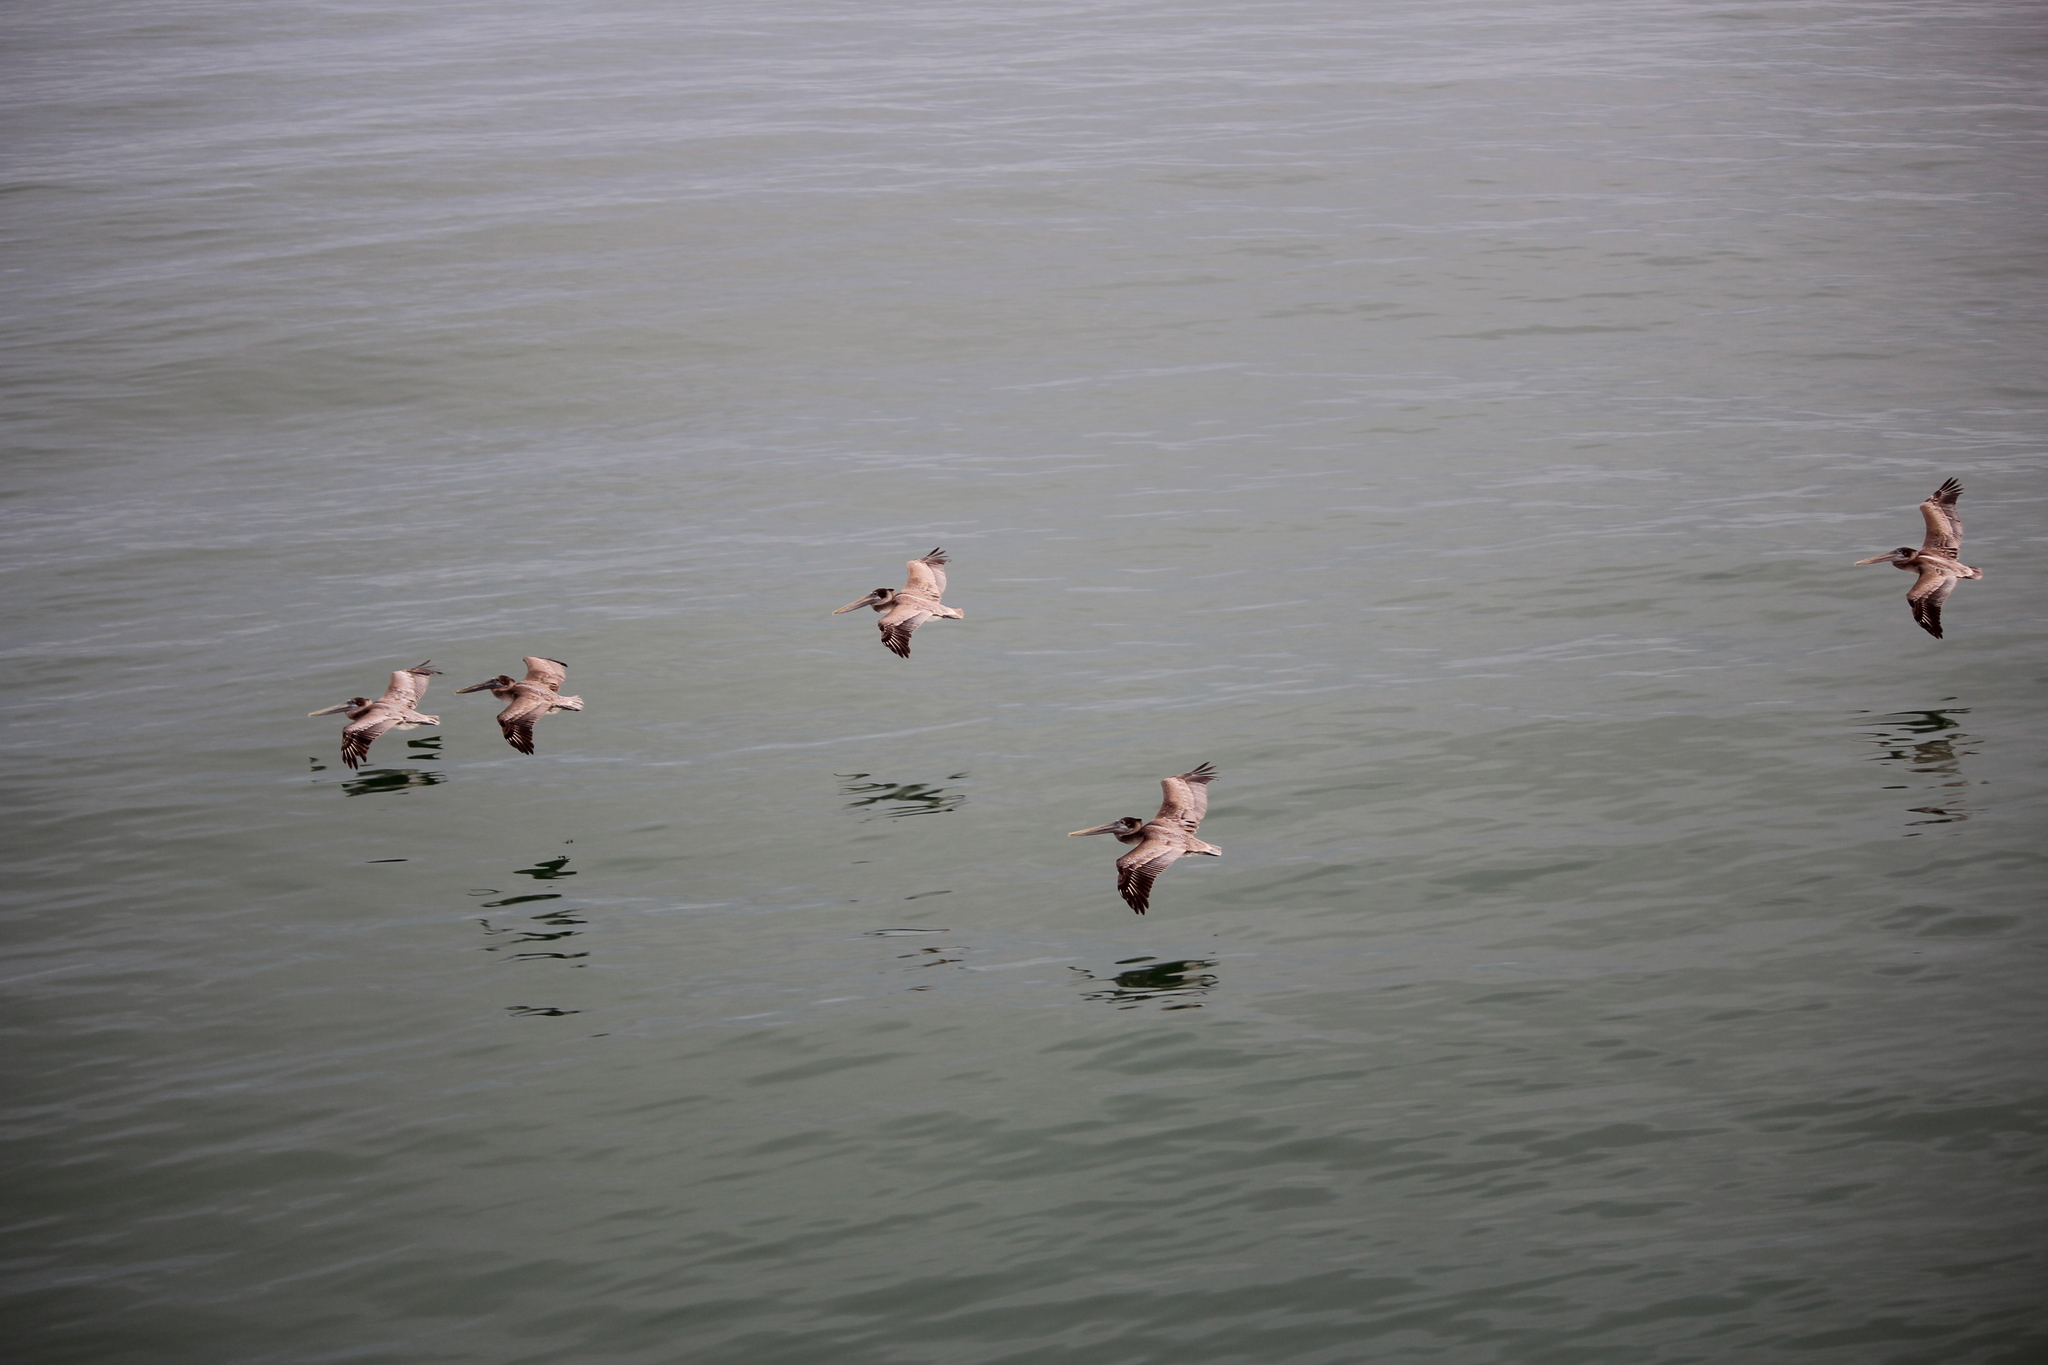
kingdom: Animalia
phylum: Chordata
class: Aves
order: Pelecaniformes
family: Pelecanidae
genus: Pelecanus
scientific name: Pelecanus occidentalis
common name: Brown pelican
